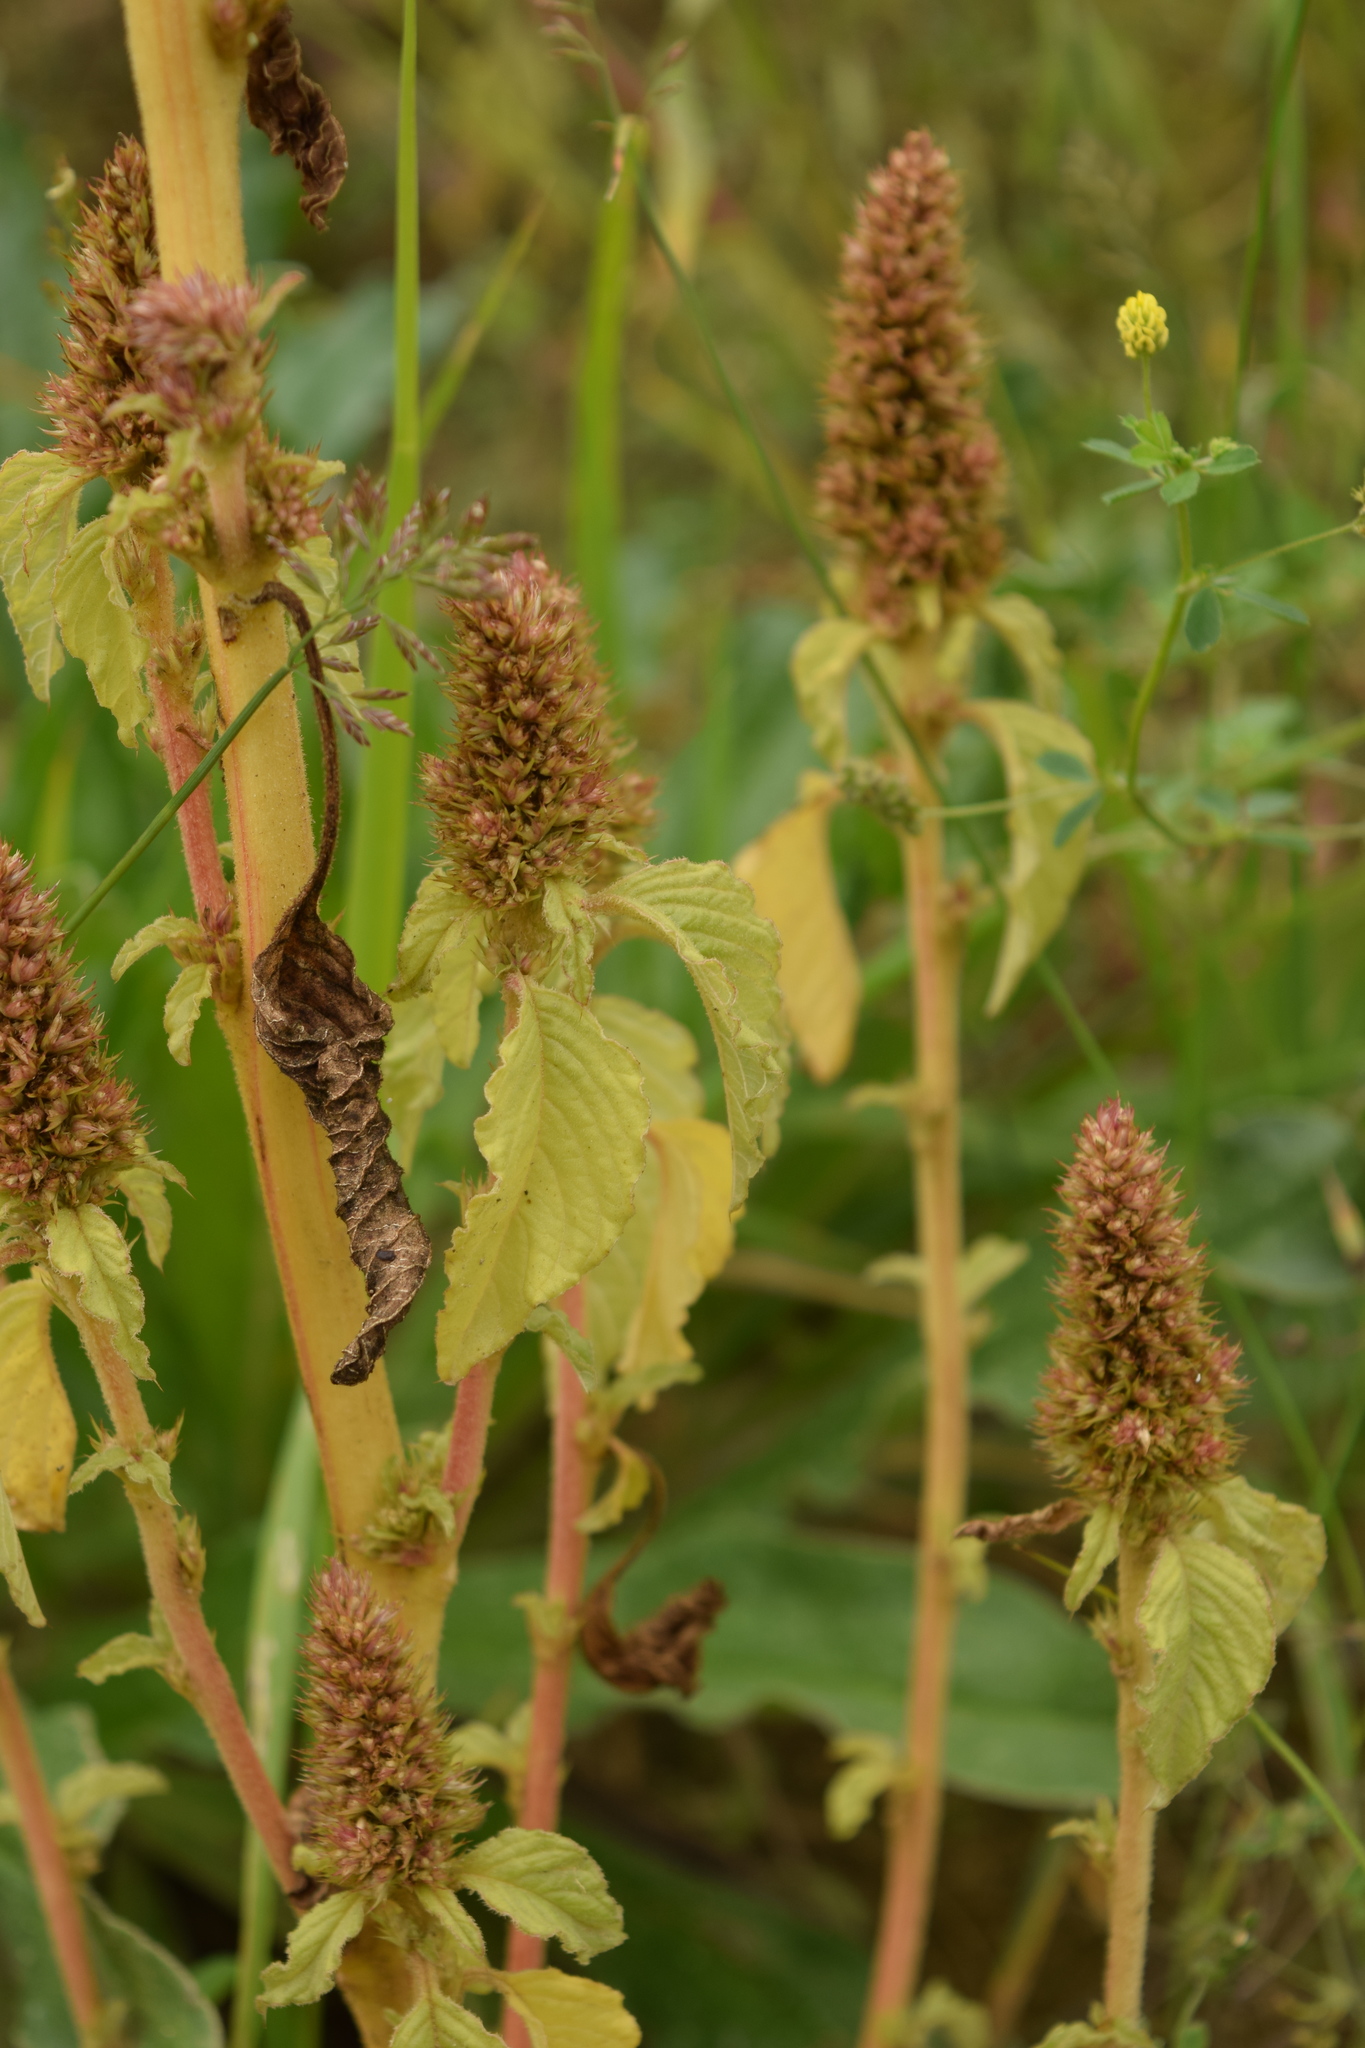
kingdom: Plantae
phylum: Tracheophyta
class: Magnoliopsida
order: Caryophyllales
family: Amaranthaceae
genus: Amaranthus
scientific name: Amaranthus retroflexus
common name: Redroot amaranth
